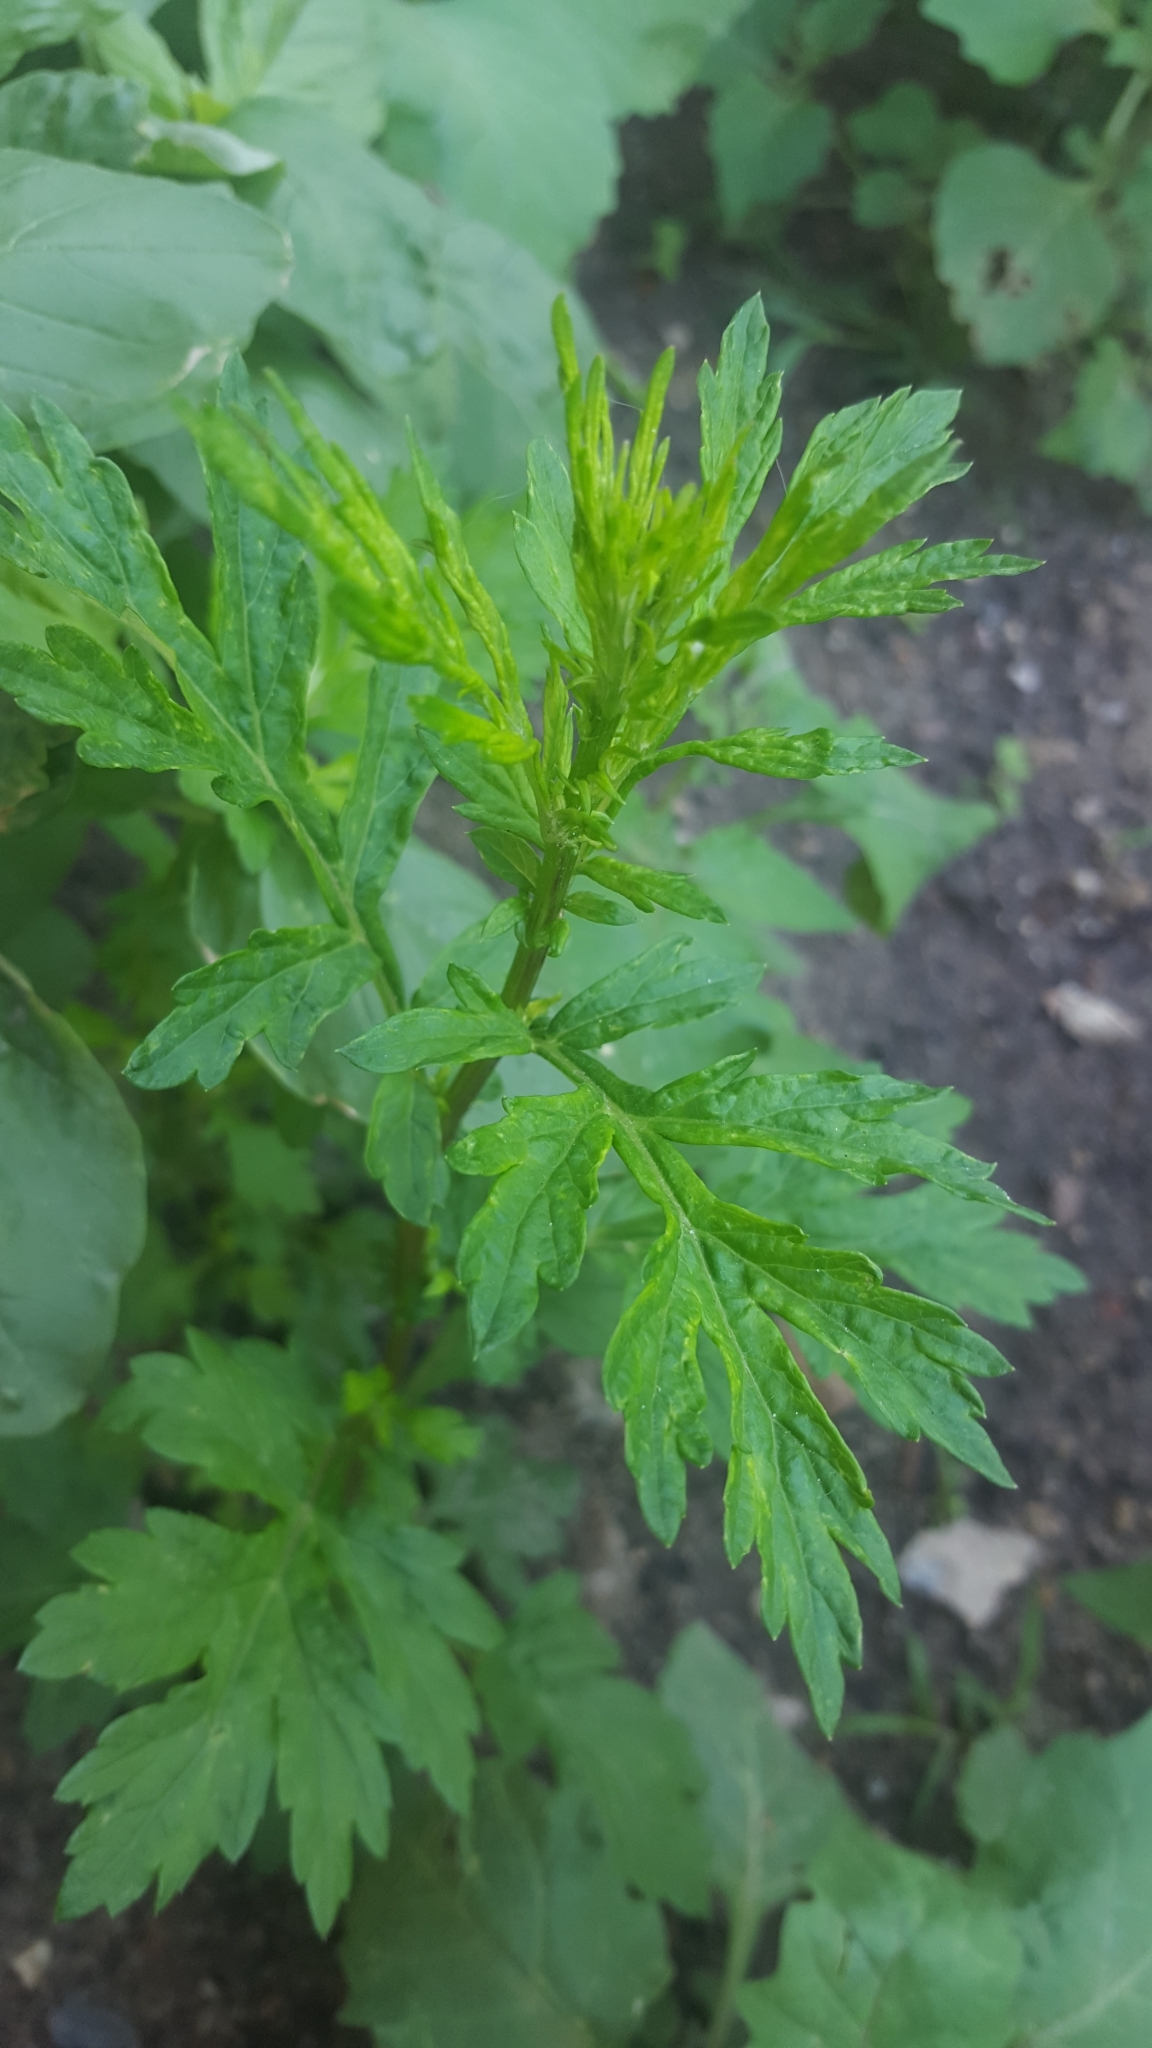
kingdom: Plantae
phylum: Tracheophyta
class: Magnoliopsida
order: Asterales
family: Asteraceae
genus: Artemisia
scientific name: Artemisia vulgaris
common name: Mugwort
